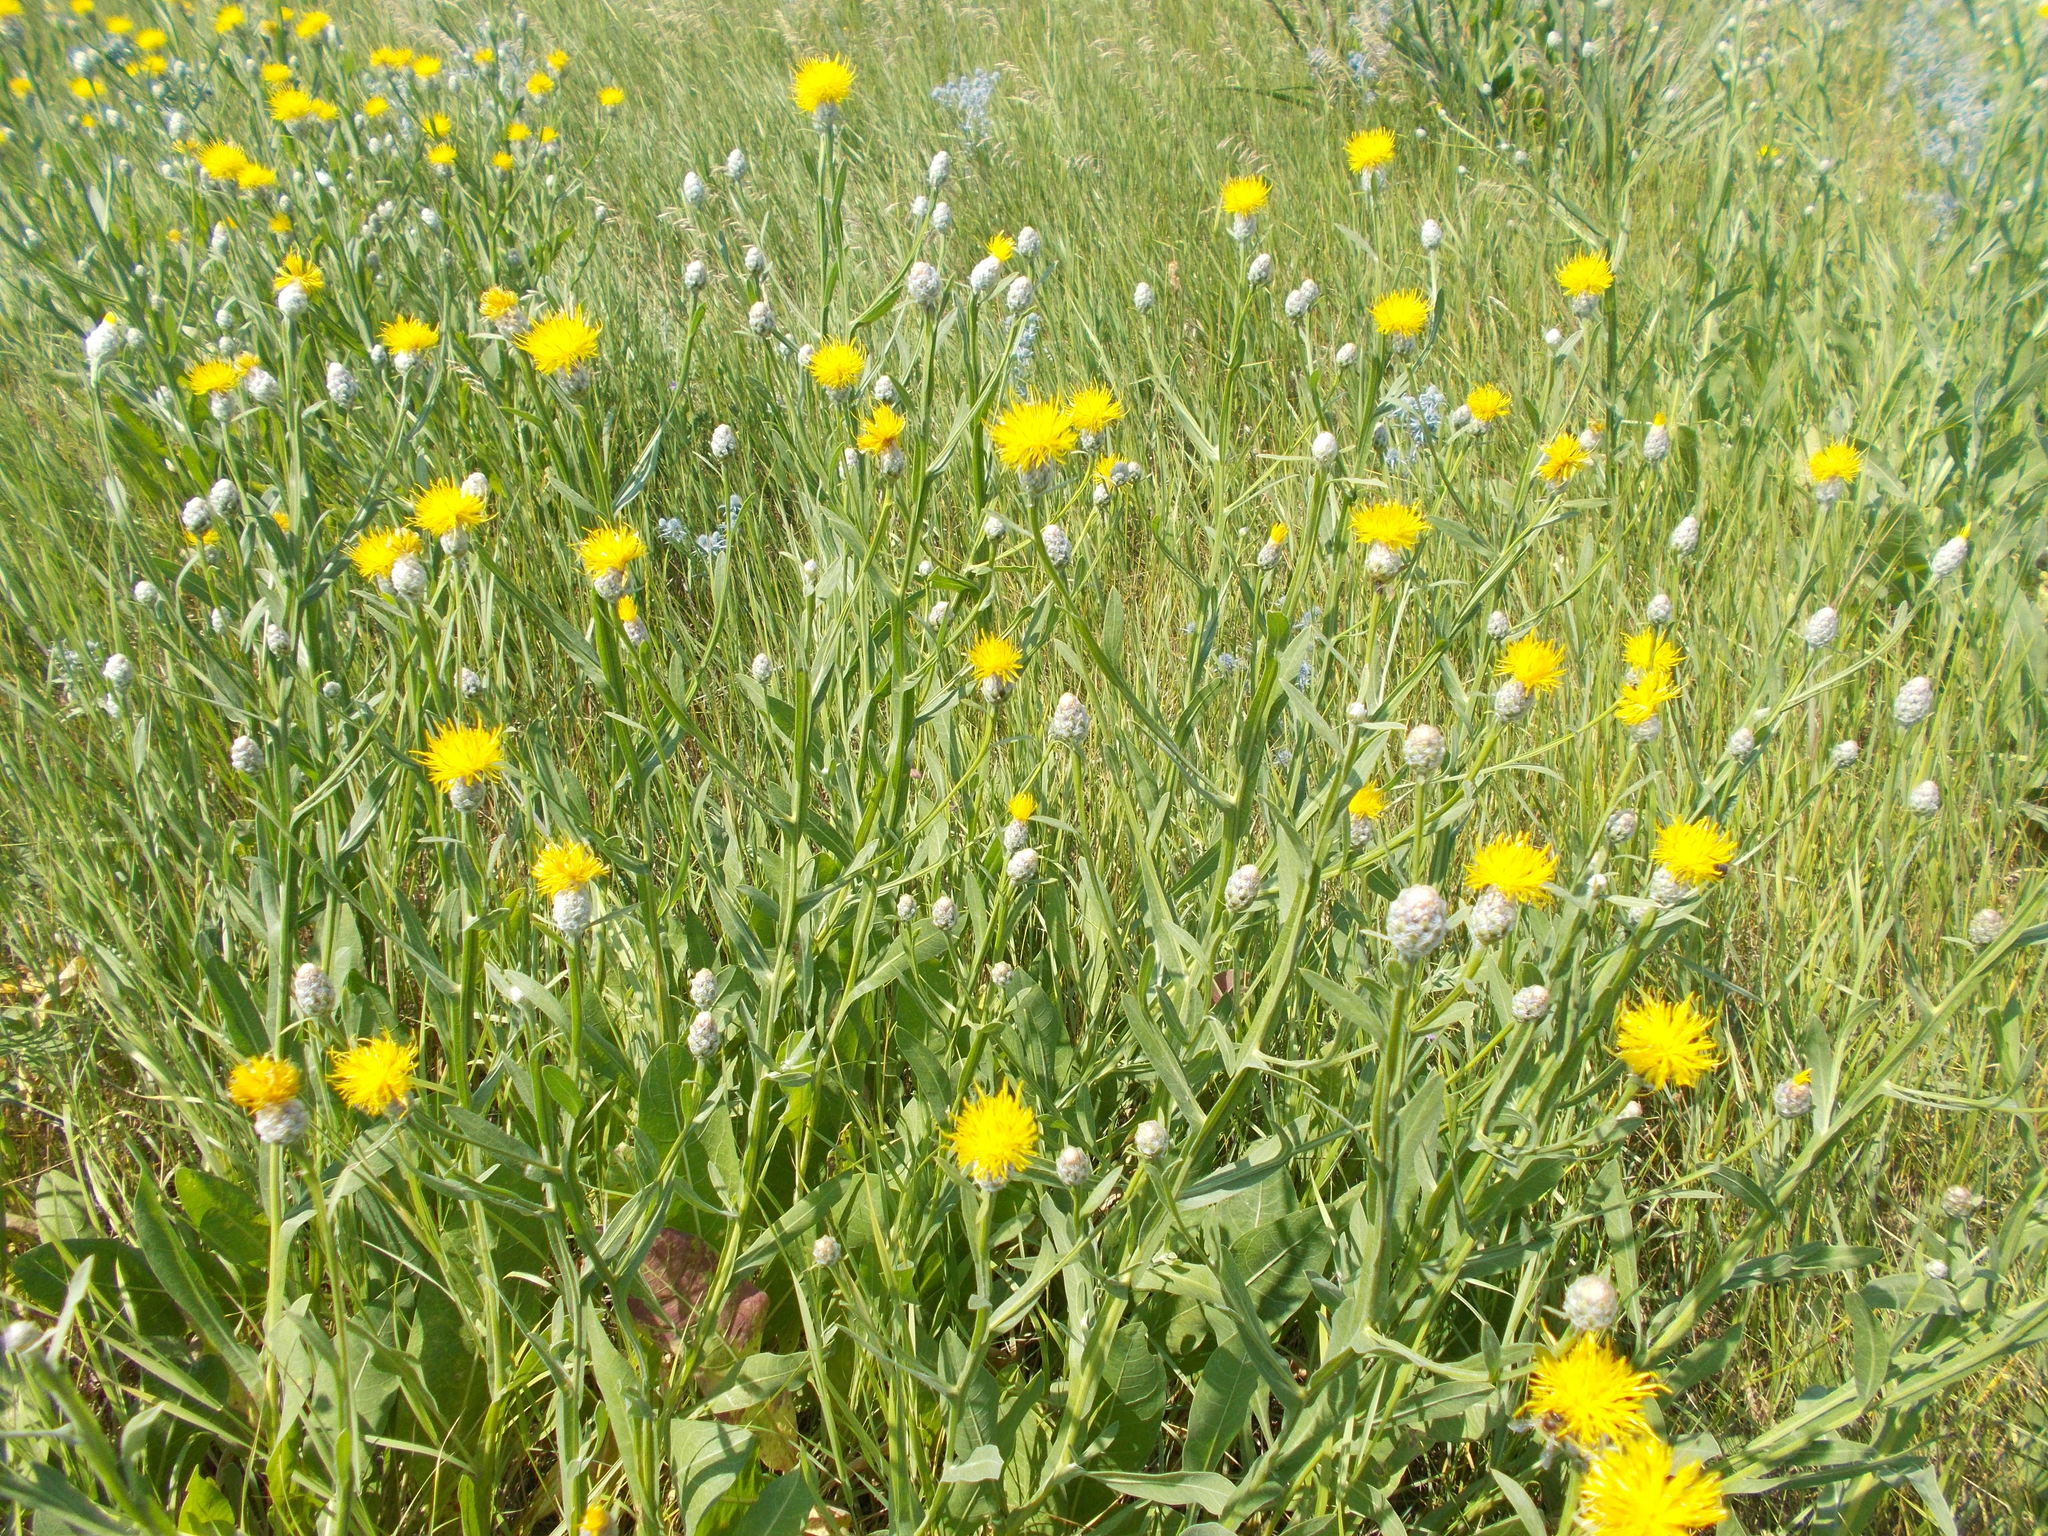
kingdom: Plantae
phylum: Tracheophyta
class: Magnoliopsida
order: Asterales
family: Asteraceae
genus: Centaurea
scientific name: Centaurea glastifolia
